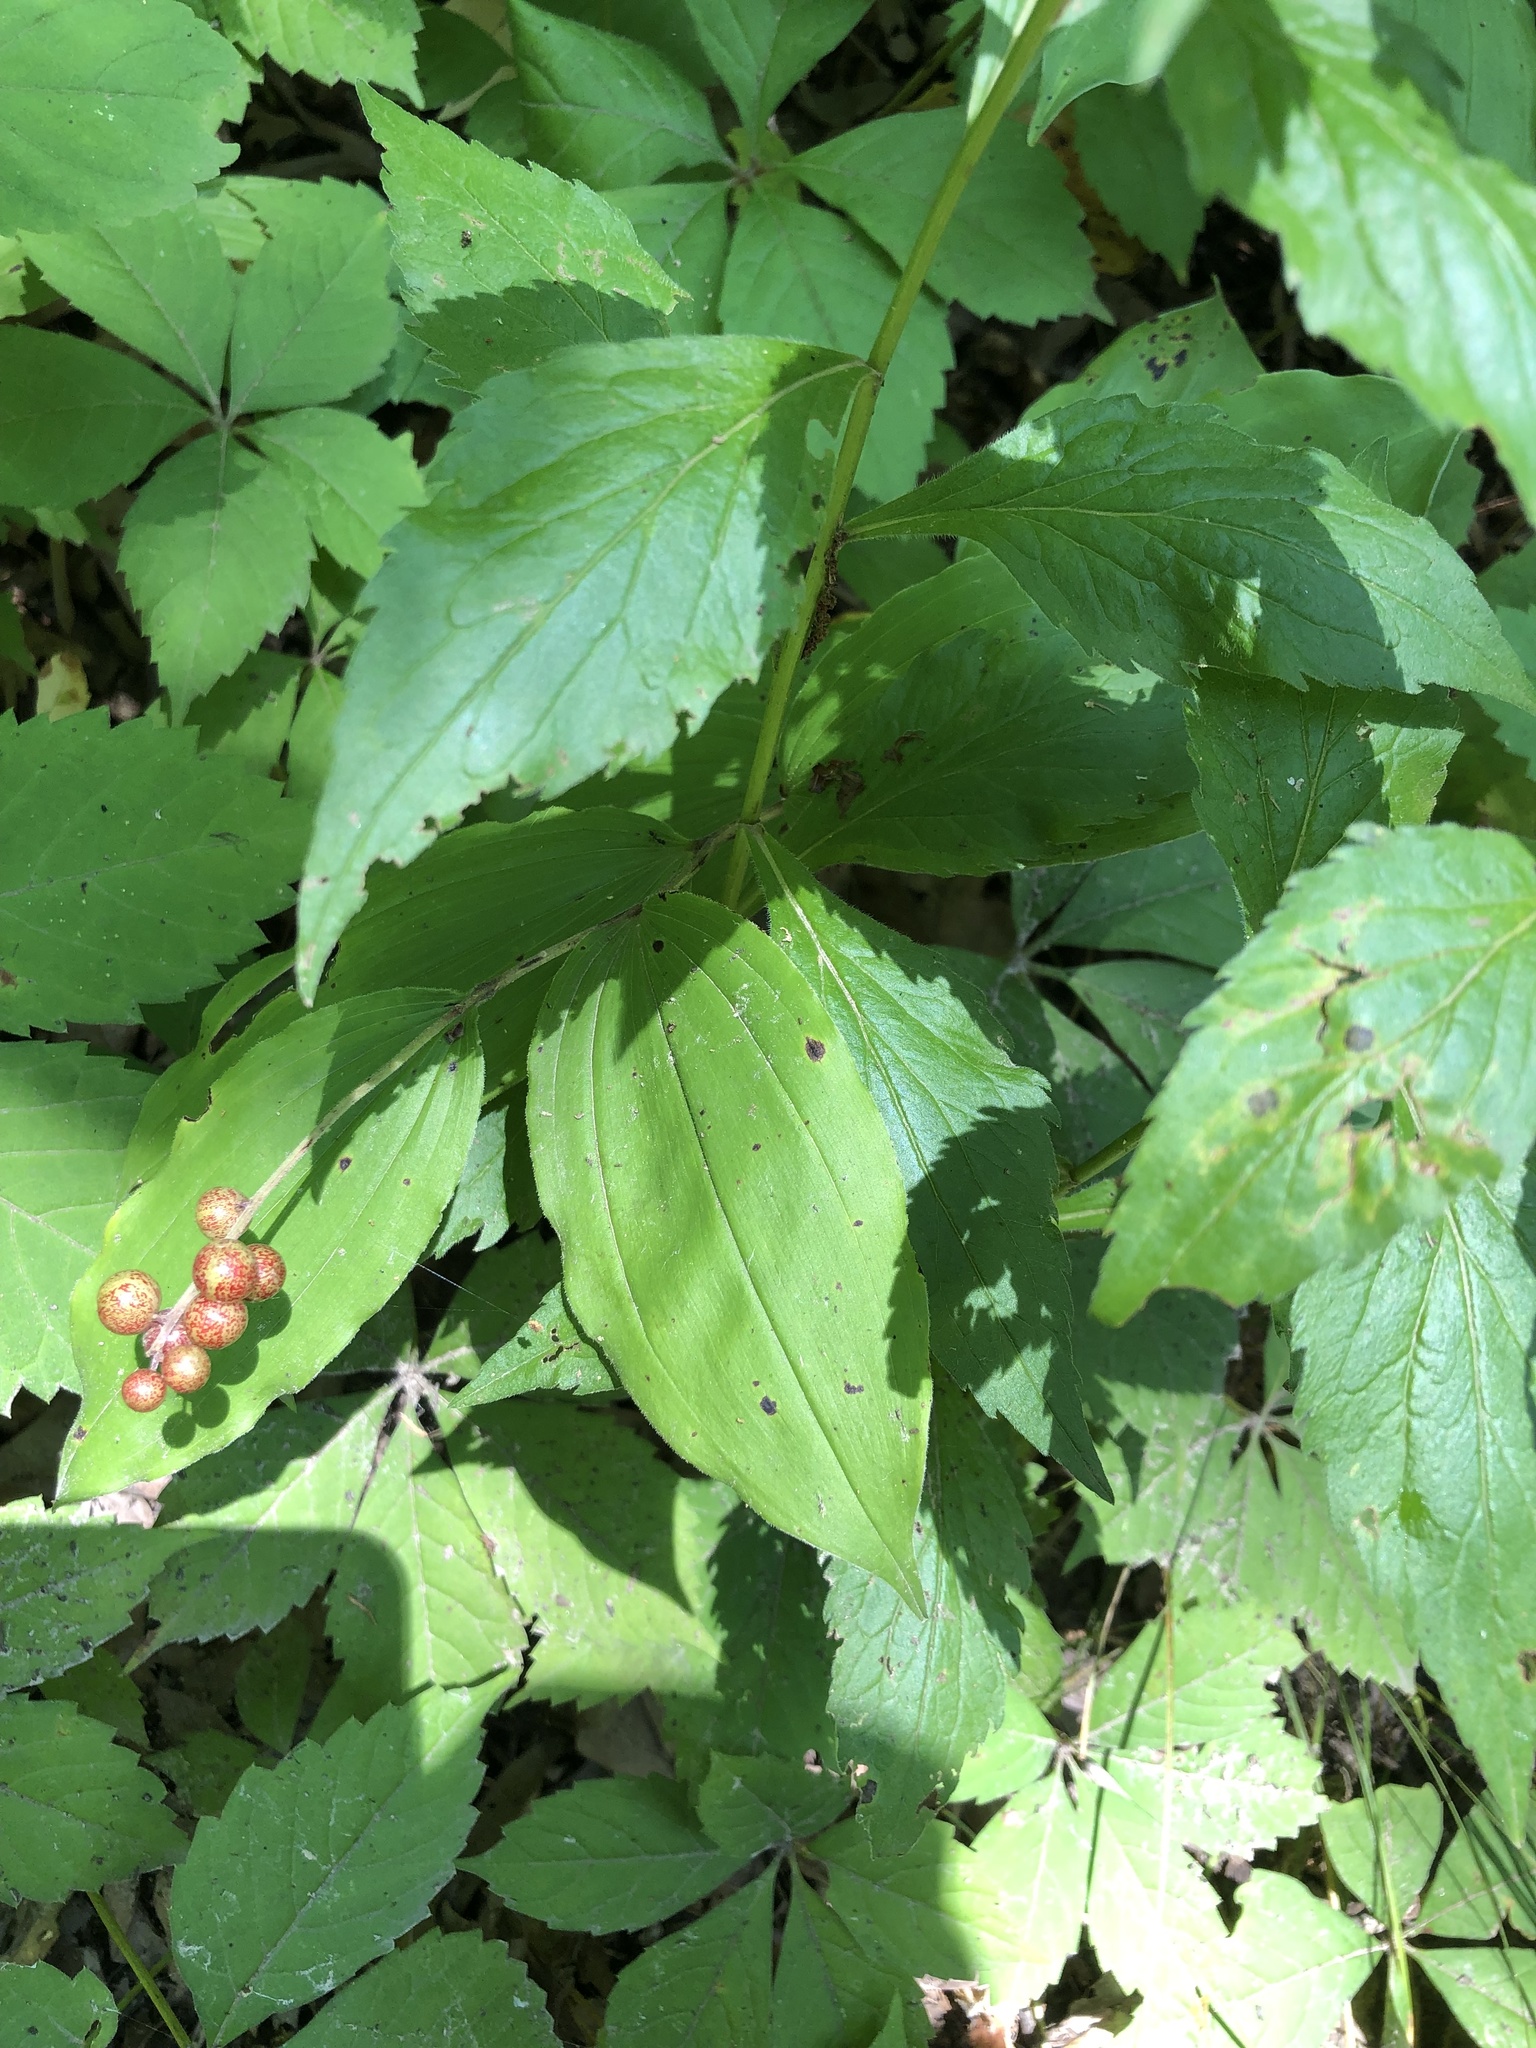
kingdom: Plantae
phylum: Tracheophyta
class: Liliopsida
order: Asparagales
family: Asparagaceae
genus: Maianthemum
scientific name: Maianthemum racemosum
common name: False spikenard
